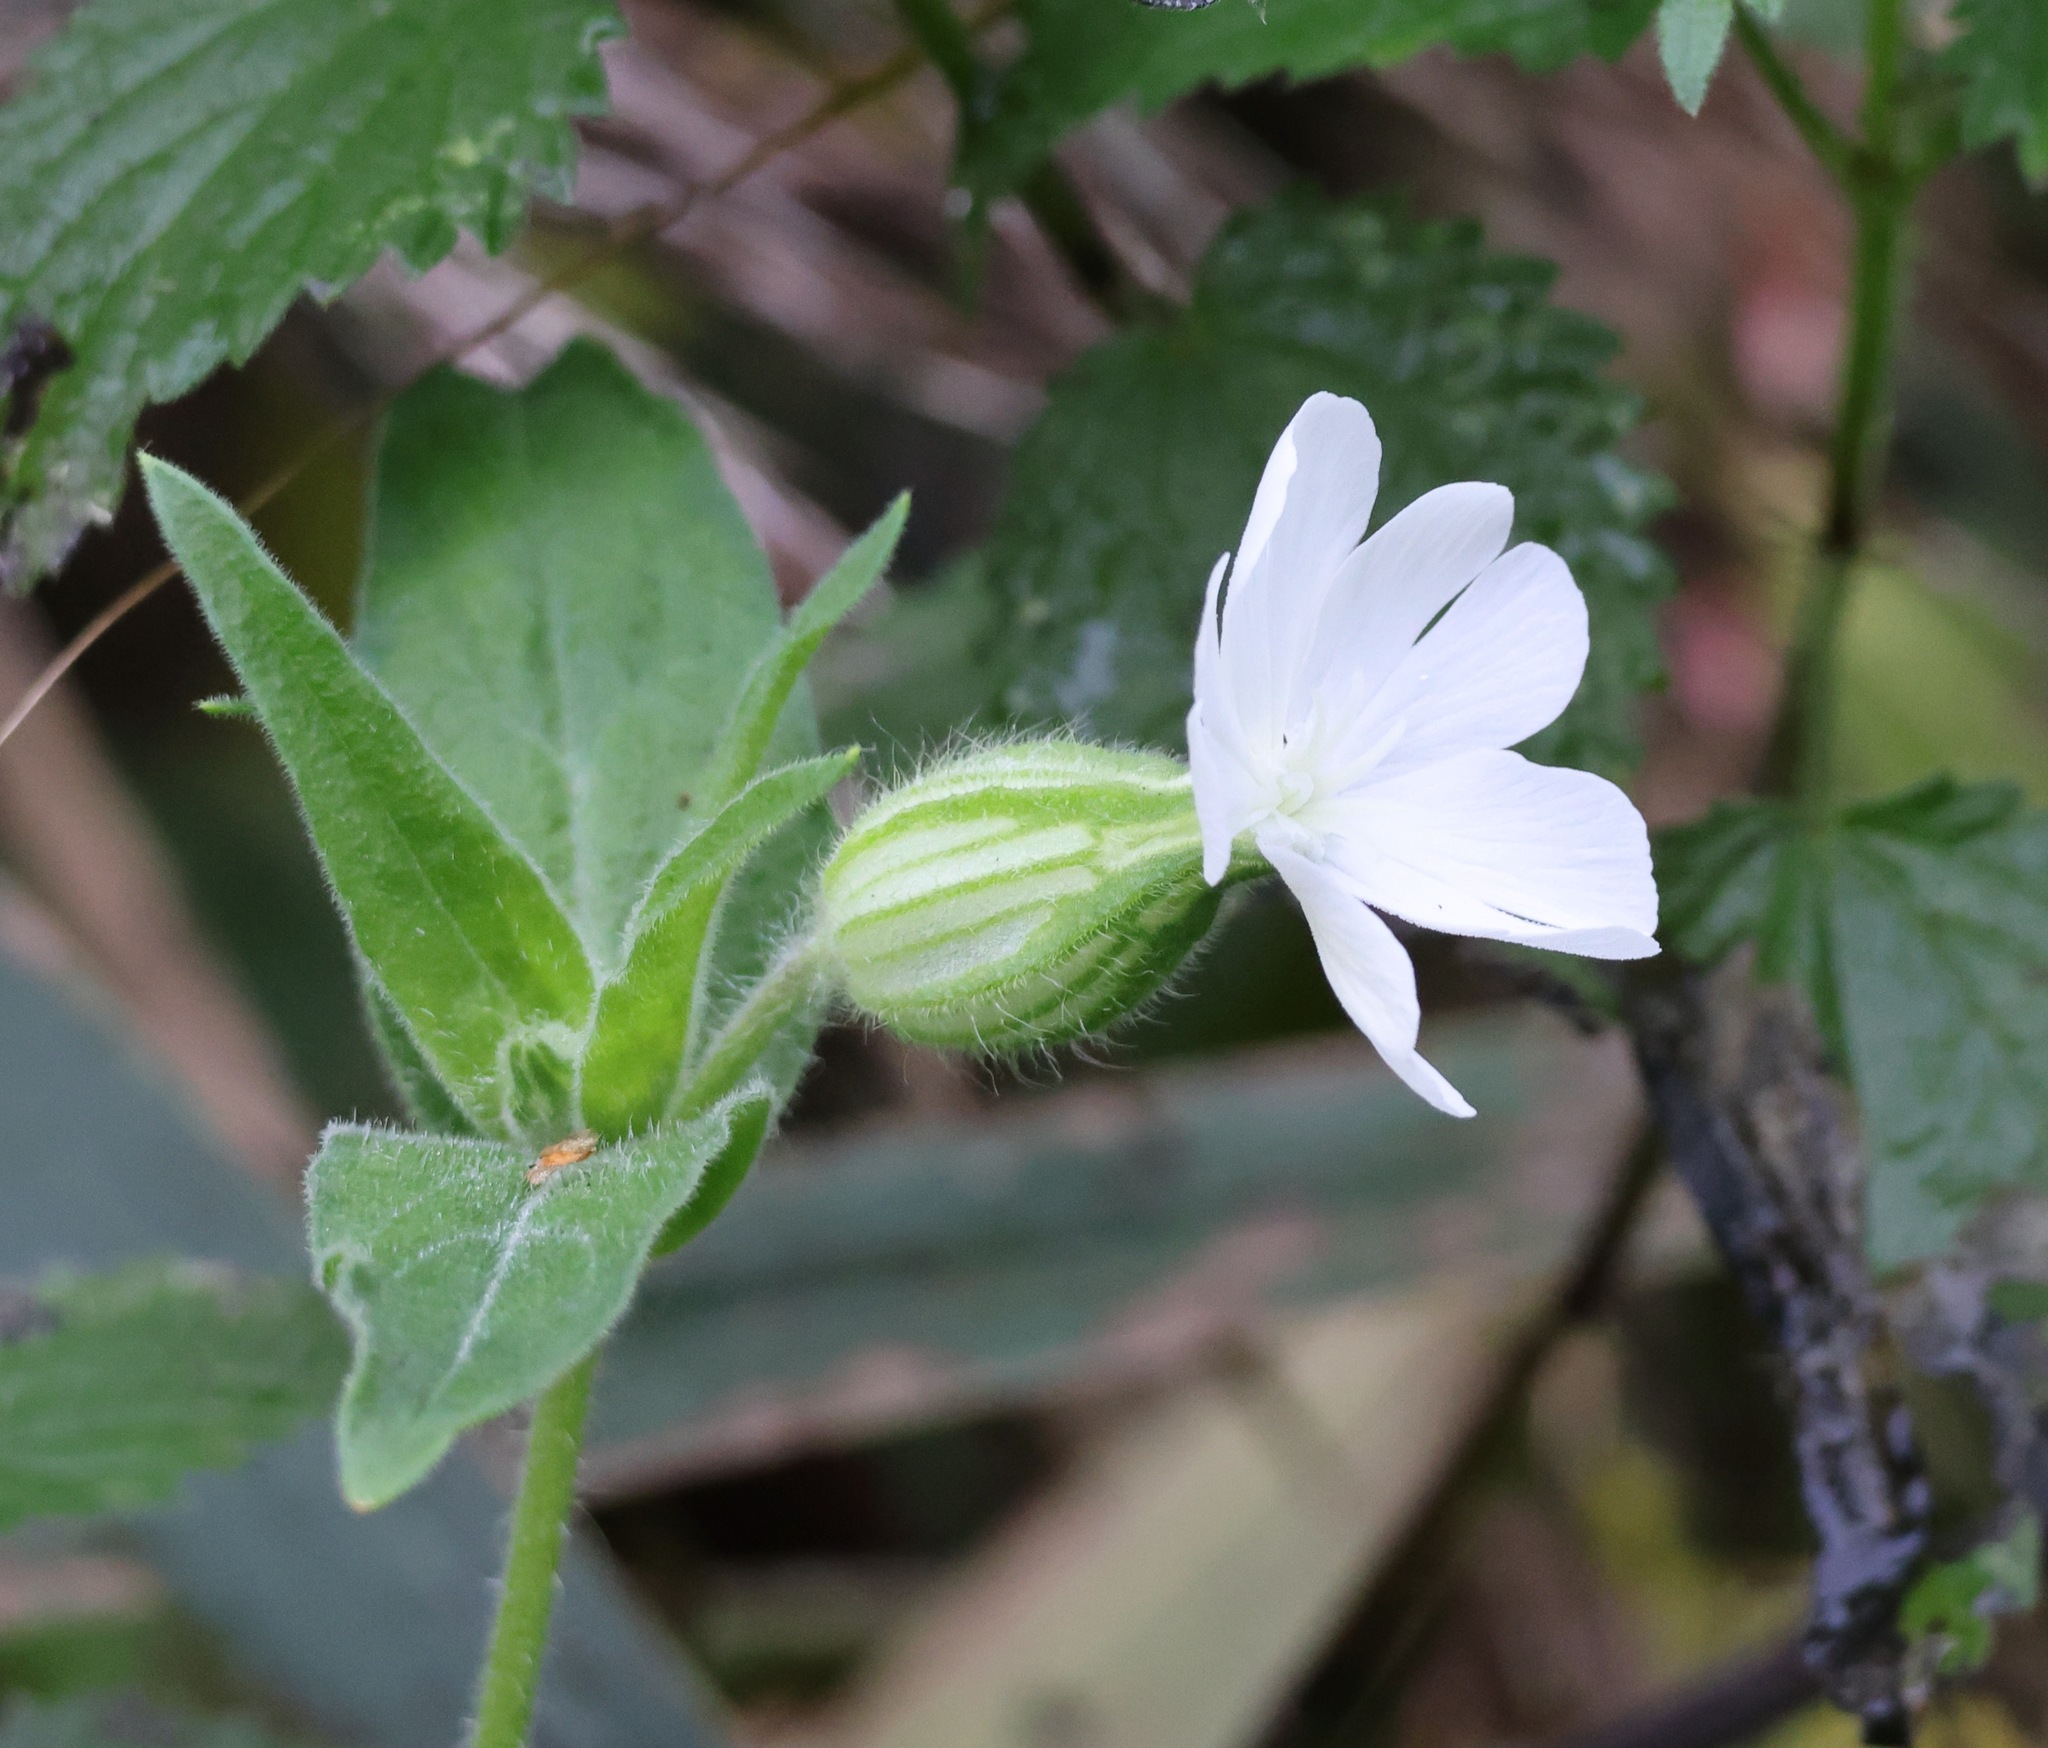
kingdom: Plantae
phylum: Tracheophyta
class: Magnoliopsida
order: Caryophyllales
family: Caryophyllaceae
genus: Silene
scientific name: Silene latifolia
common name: White campion
